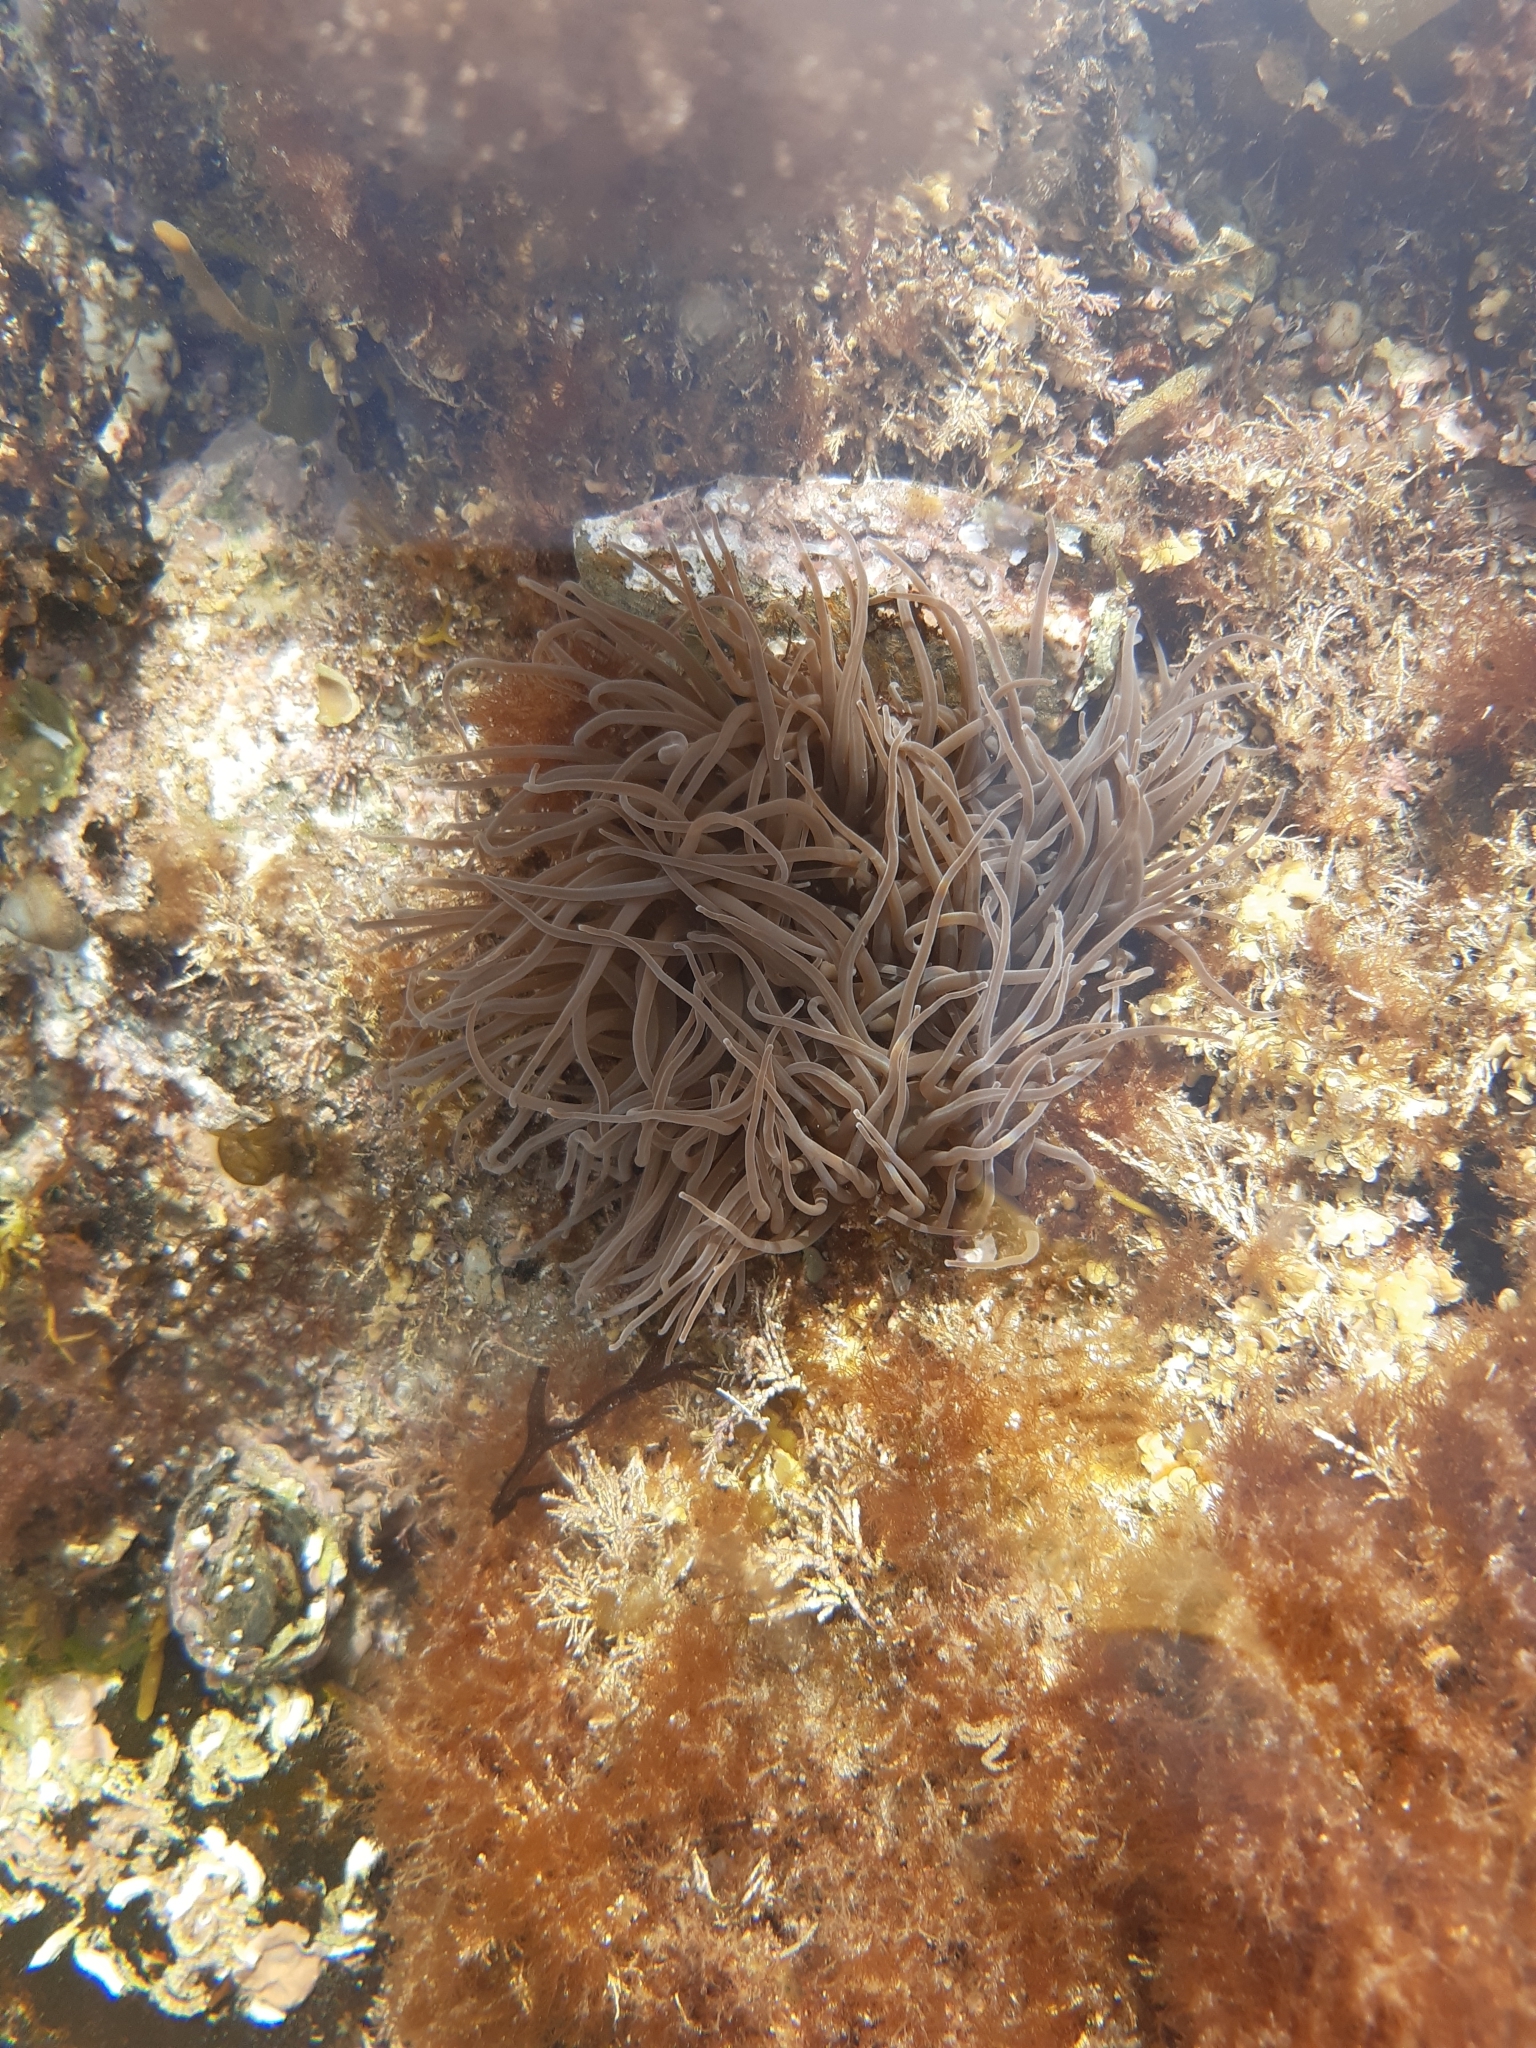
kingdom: Animalia
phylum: Cnidaria
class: Anthozoa
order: Actiniaria
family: Actiniidae
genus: Anemonia
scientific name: Anemonia viridis
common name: Snakelocks anemone
